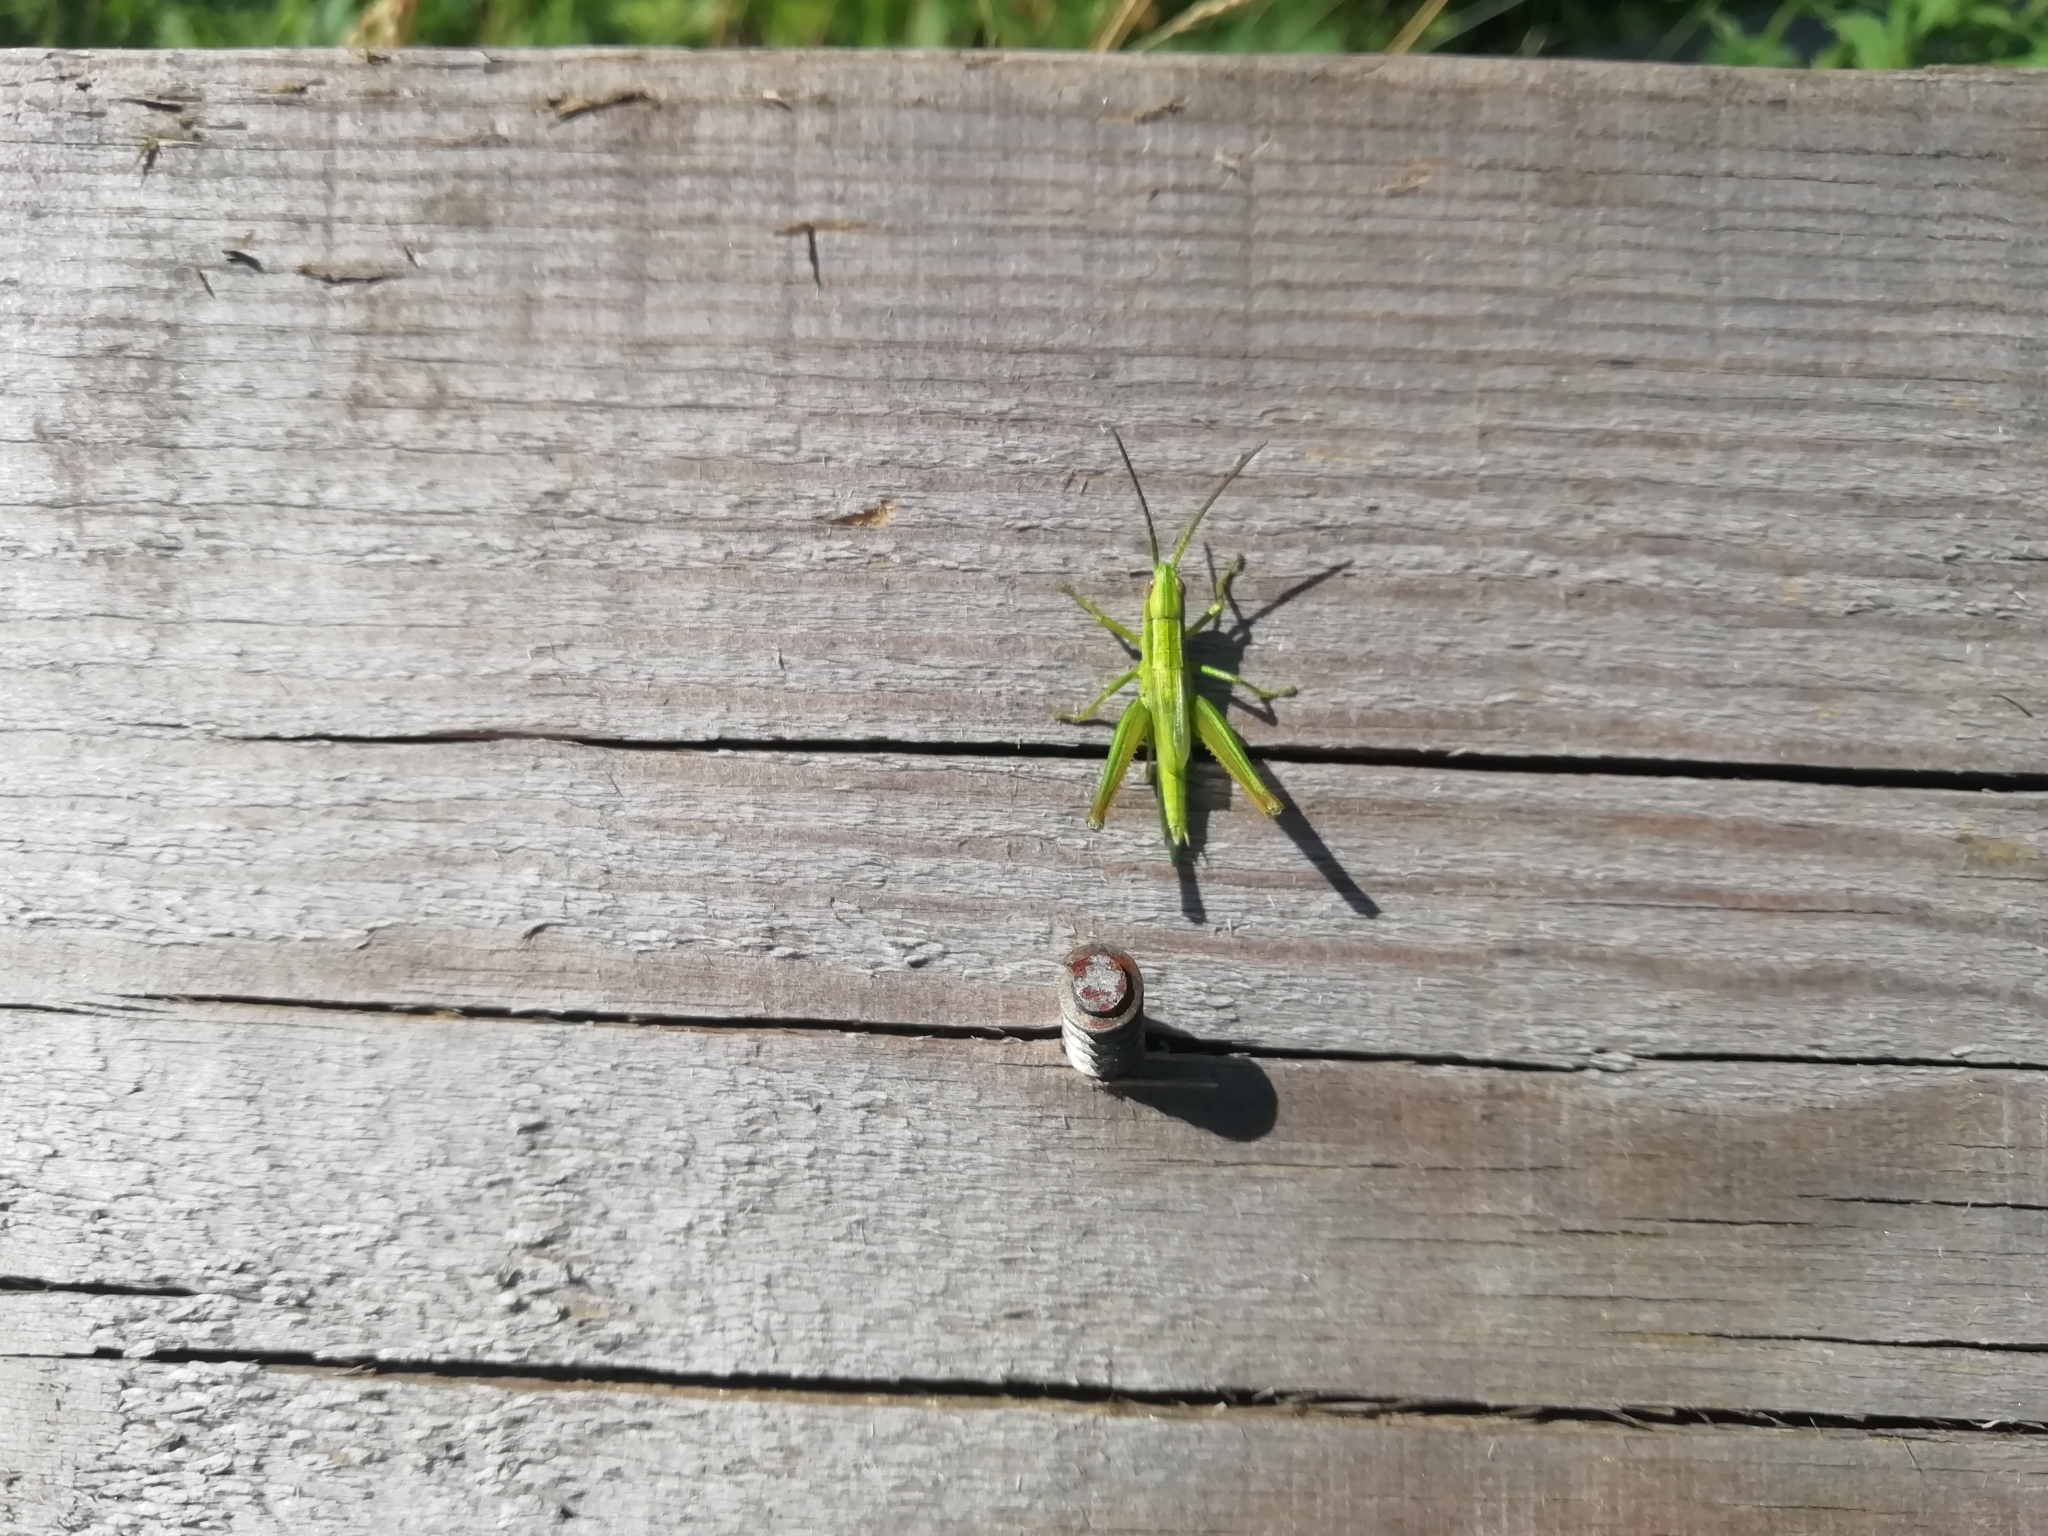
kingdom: Animalia
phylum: Arthropoda
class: Insecta
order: Orthoptera
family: Acrididae
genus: Euthystira
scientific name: Euthystira brachyptera
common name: Small gold grasshopper
